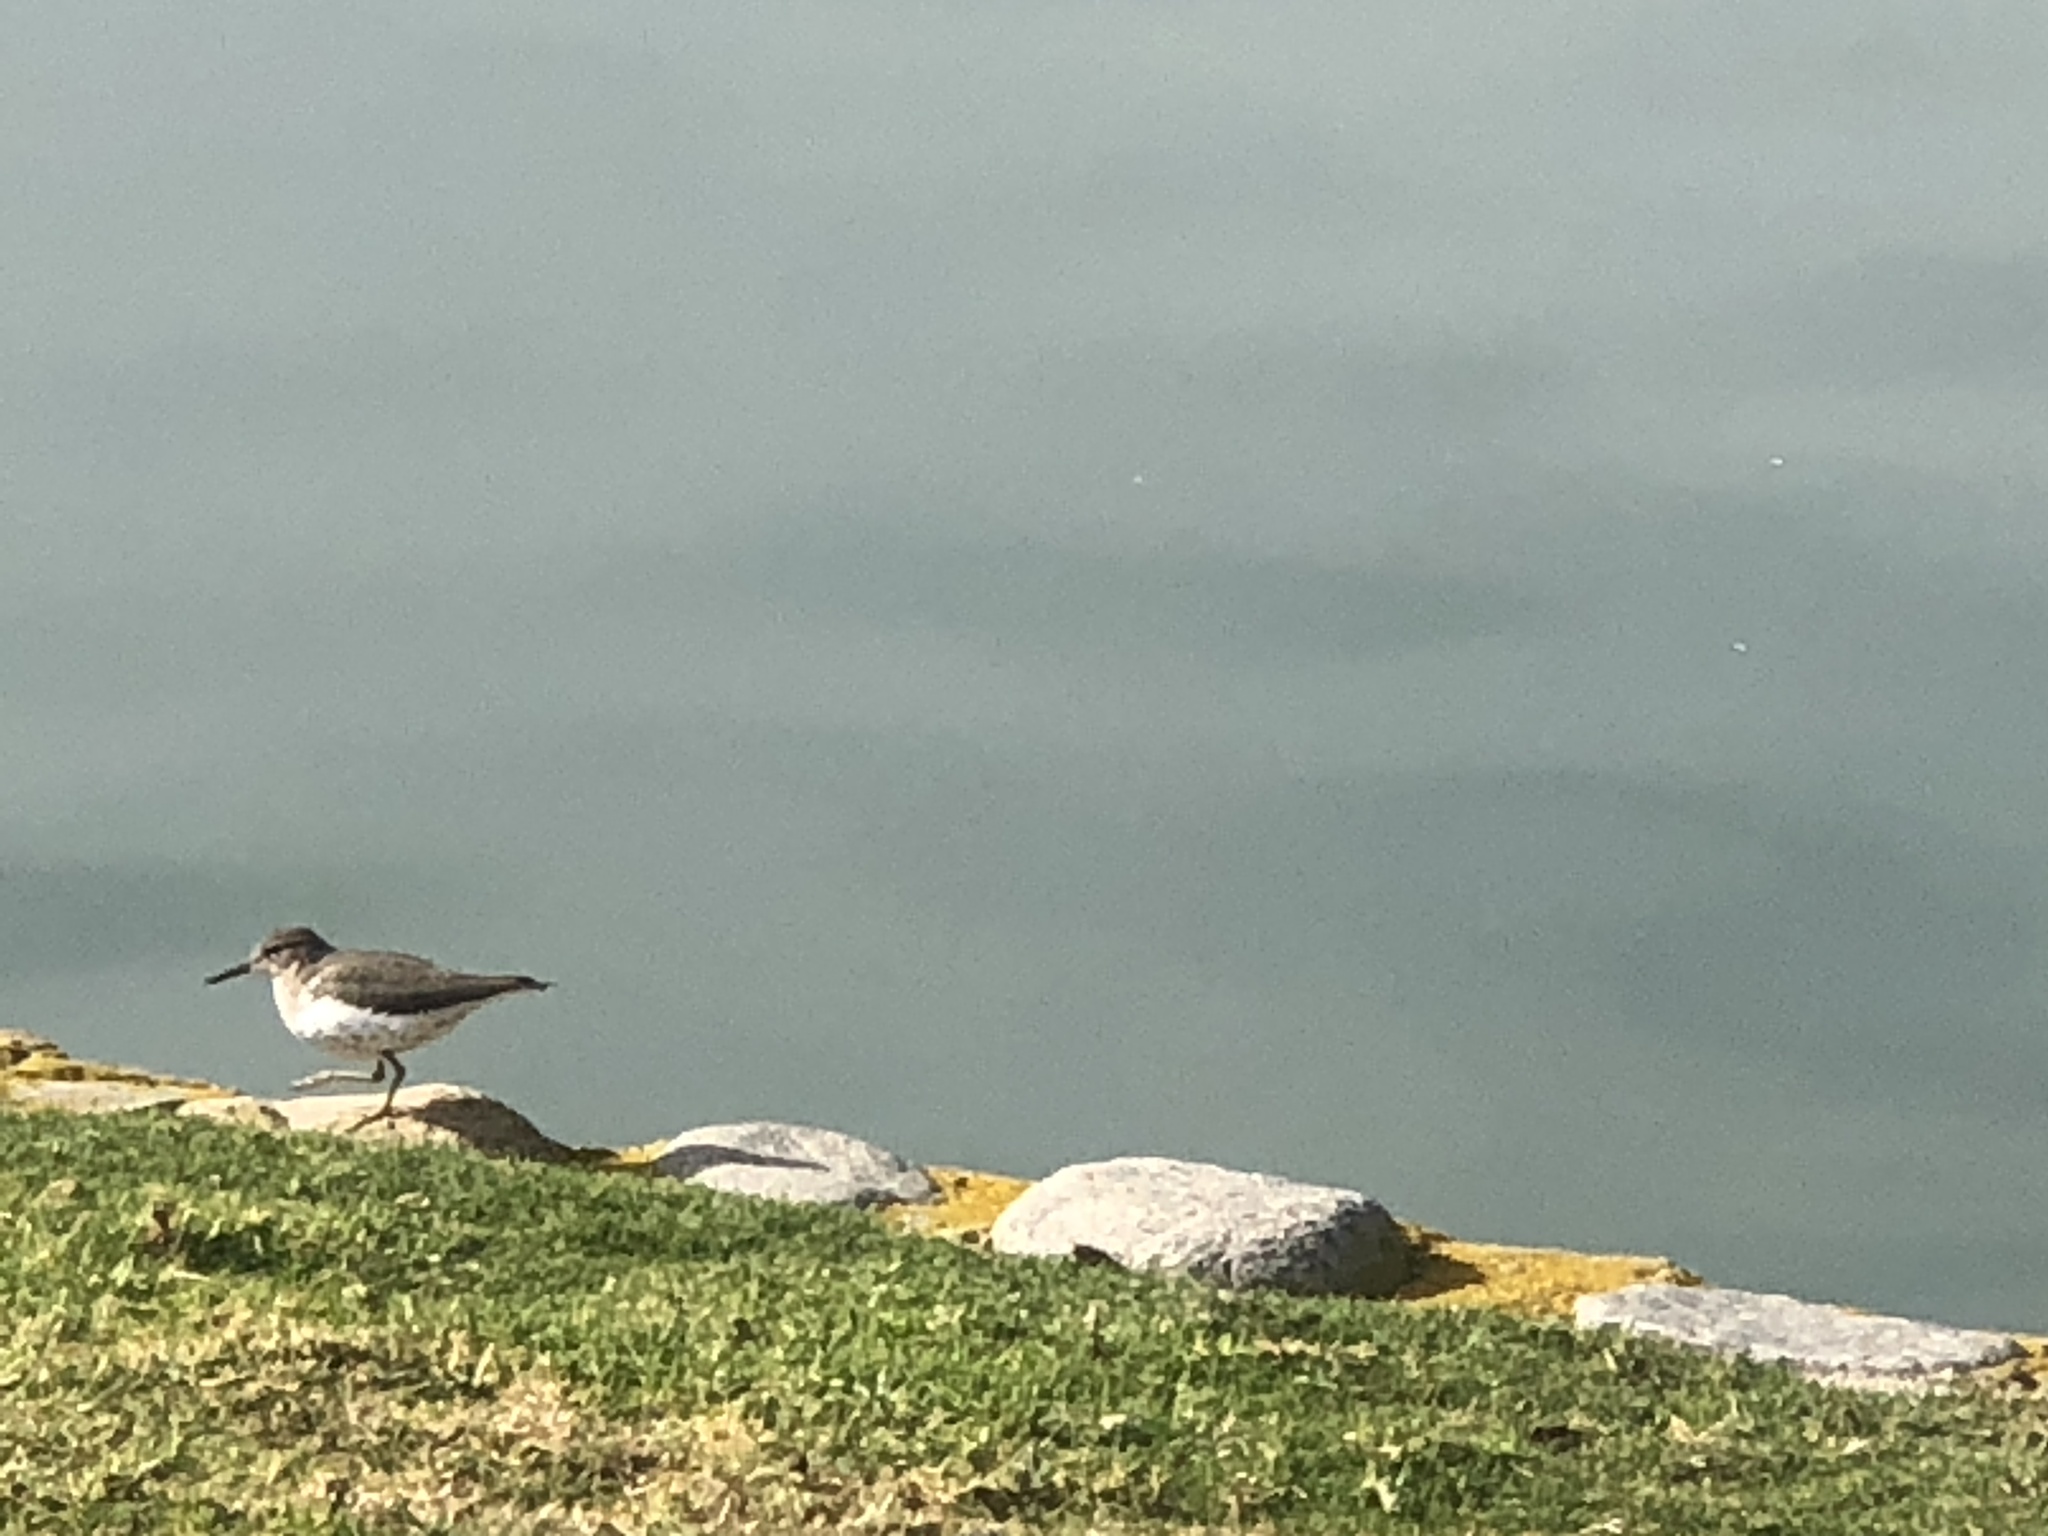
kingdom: Animalia
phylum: Chordata
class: Aves
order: Charadriiformes
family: Scolopacidae
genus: Actitis
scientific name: Actitis macularius
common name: Spotted sandpiper
